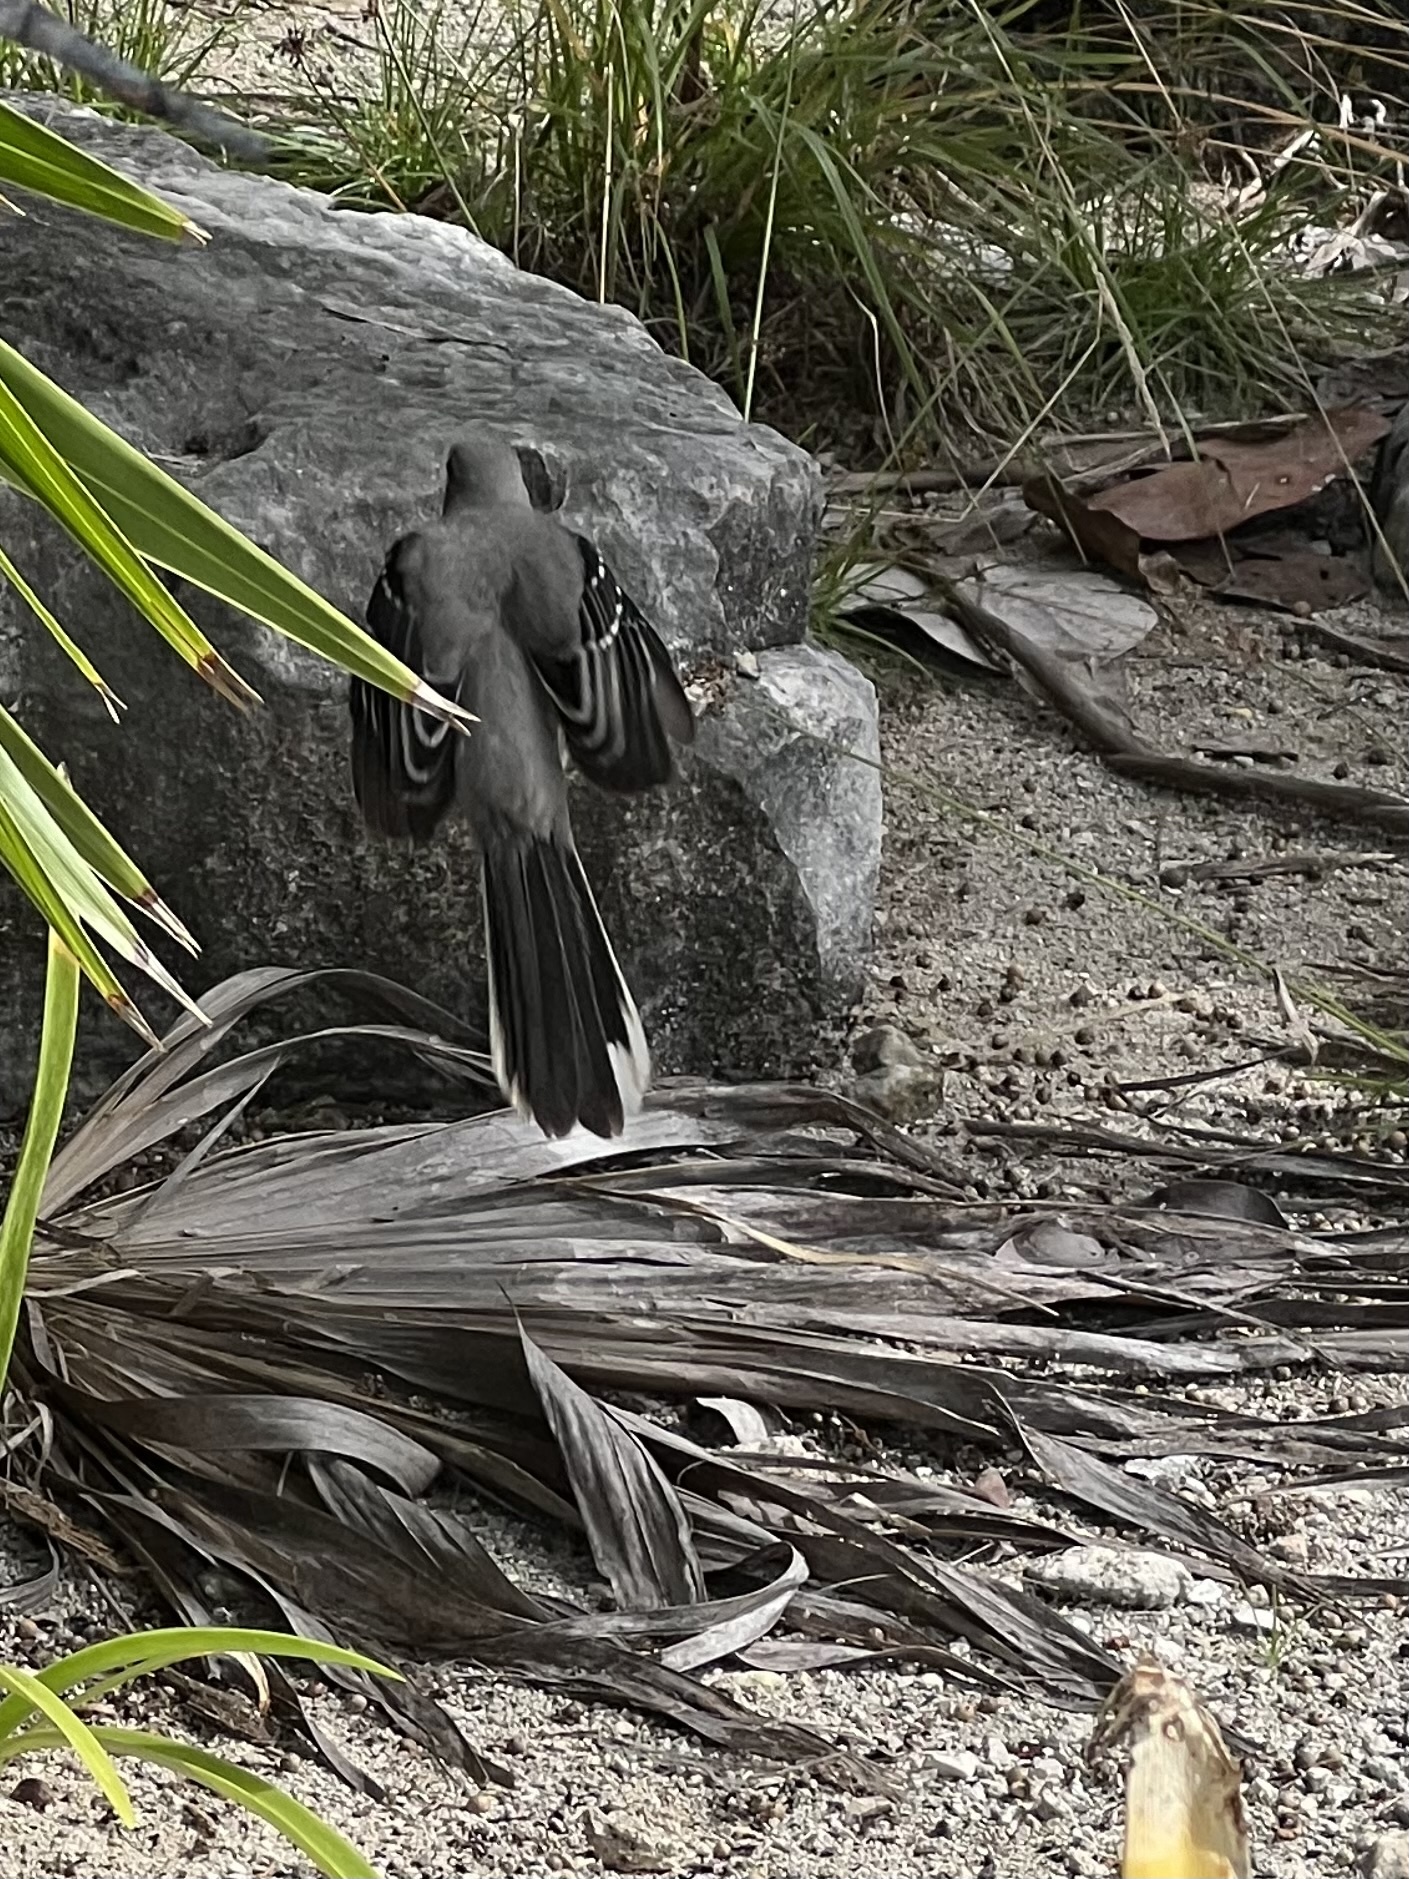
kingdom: Animalia
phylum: Chordata
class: Aves
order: Passeriformes
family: Mimidae
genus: Mimus
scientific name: Mimus gilvus
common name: Tropical mockingbird
